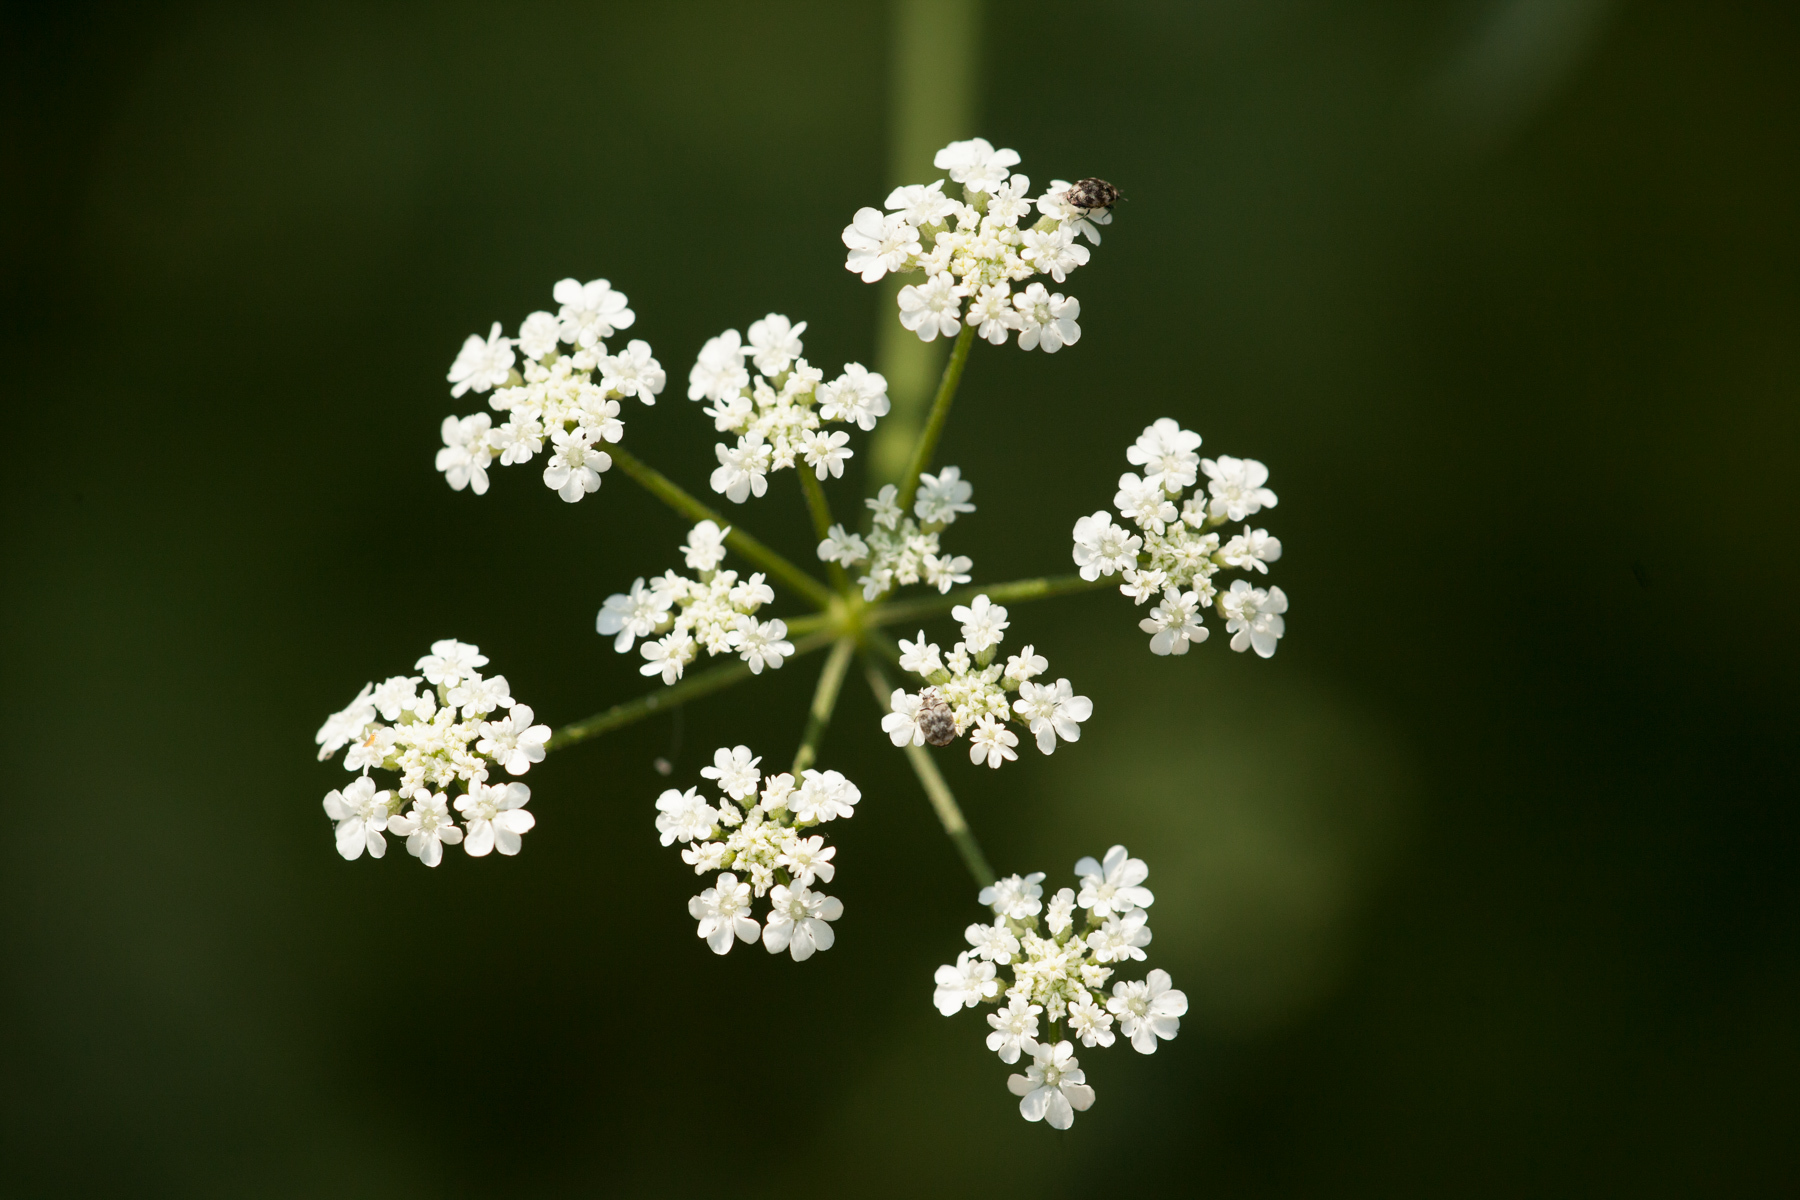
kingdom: Plantae
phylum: Tracheophyta
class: Magnoliopsida
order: Apiales
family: Apiaceae
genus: Torilis
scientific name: Torilis arvensis
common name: Spreading hedge-parsley
